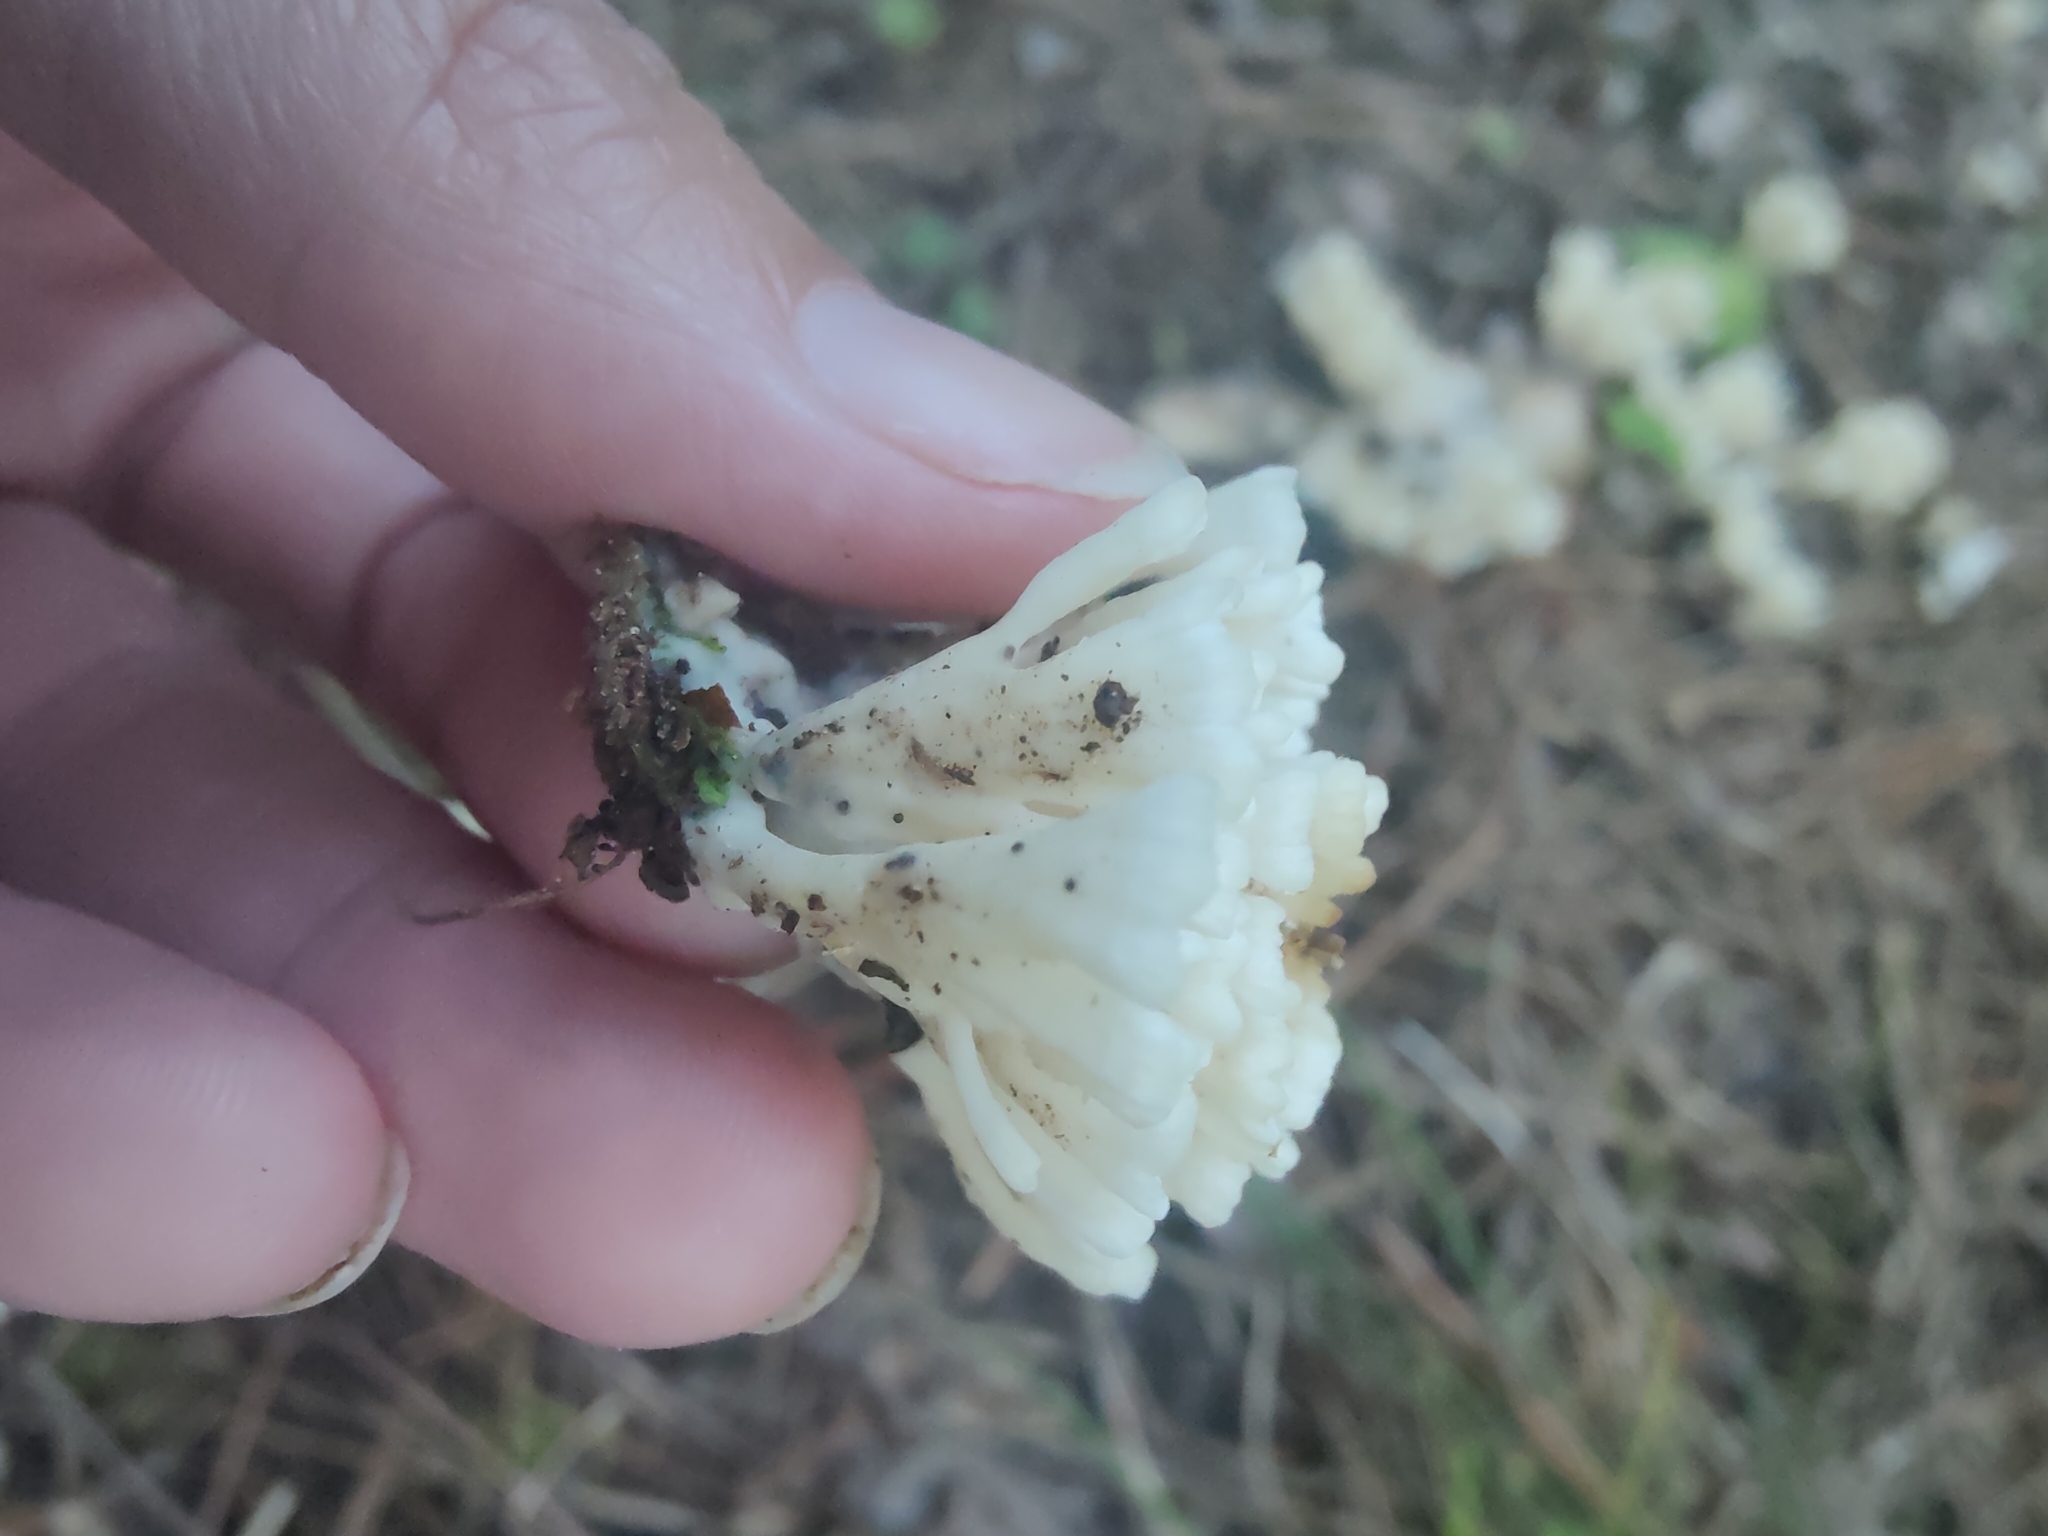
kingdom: Fungi
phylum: Basidiomycota
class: Agaricomycetes
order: Sebacinales
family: Sebacinaceae
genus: Sebacina
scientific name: Sebacina schweinitzii
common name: Jellied false coral fungus
